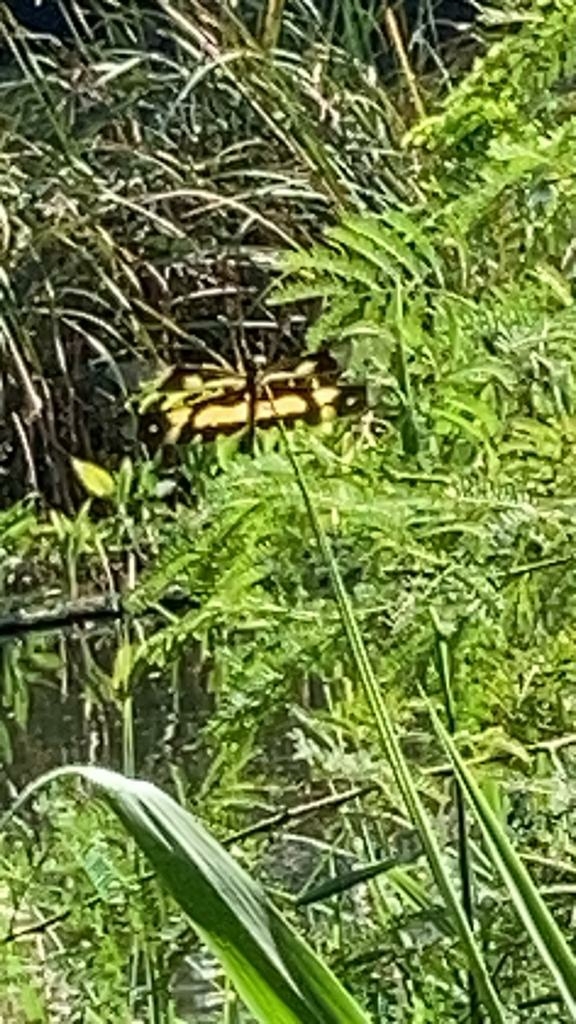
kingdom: Animalia
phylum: Arthropoda
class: Insecta
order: Odonata
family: Libellulidae
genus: Rhyothemis
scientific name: Rhyothemis variegata
